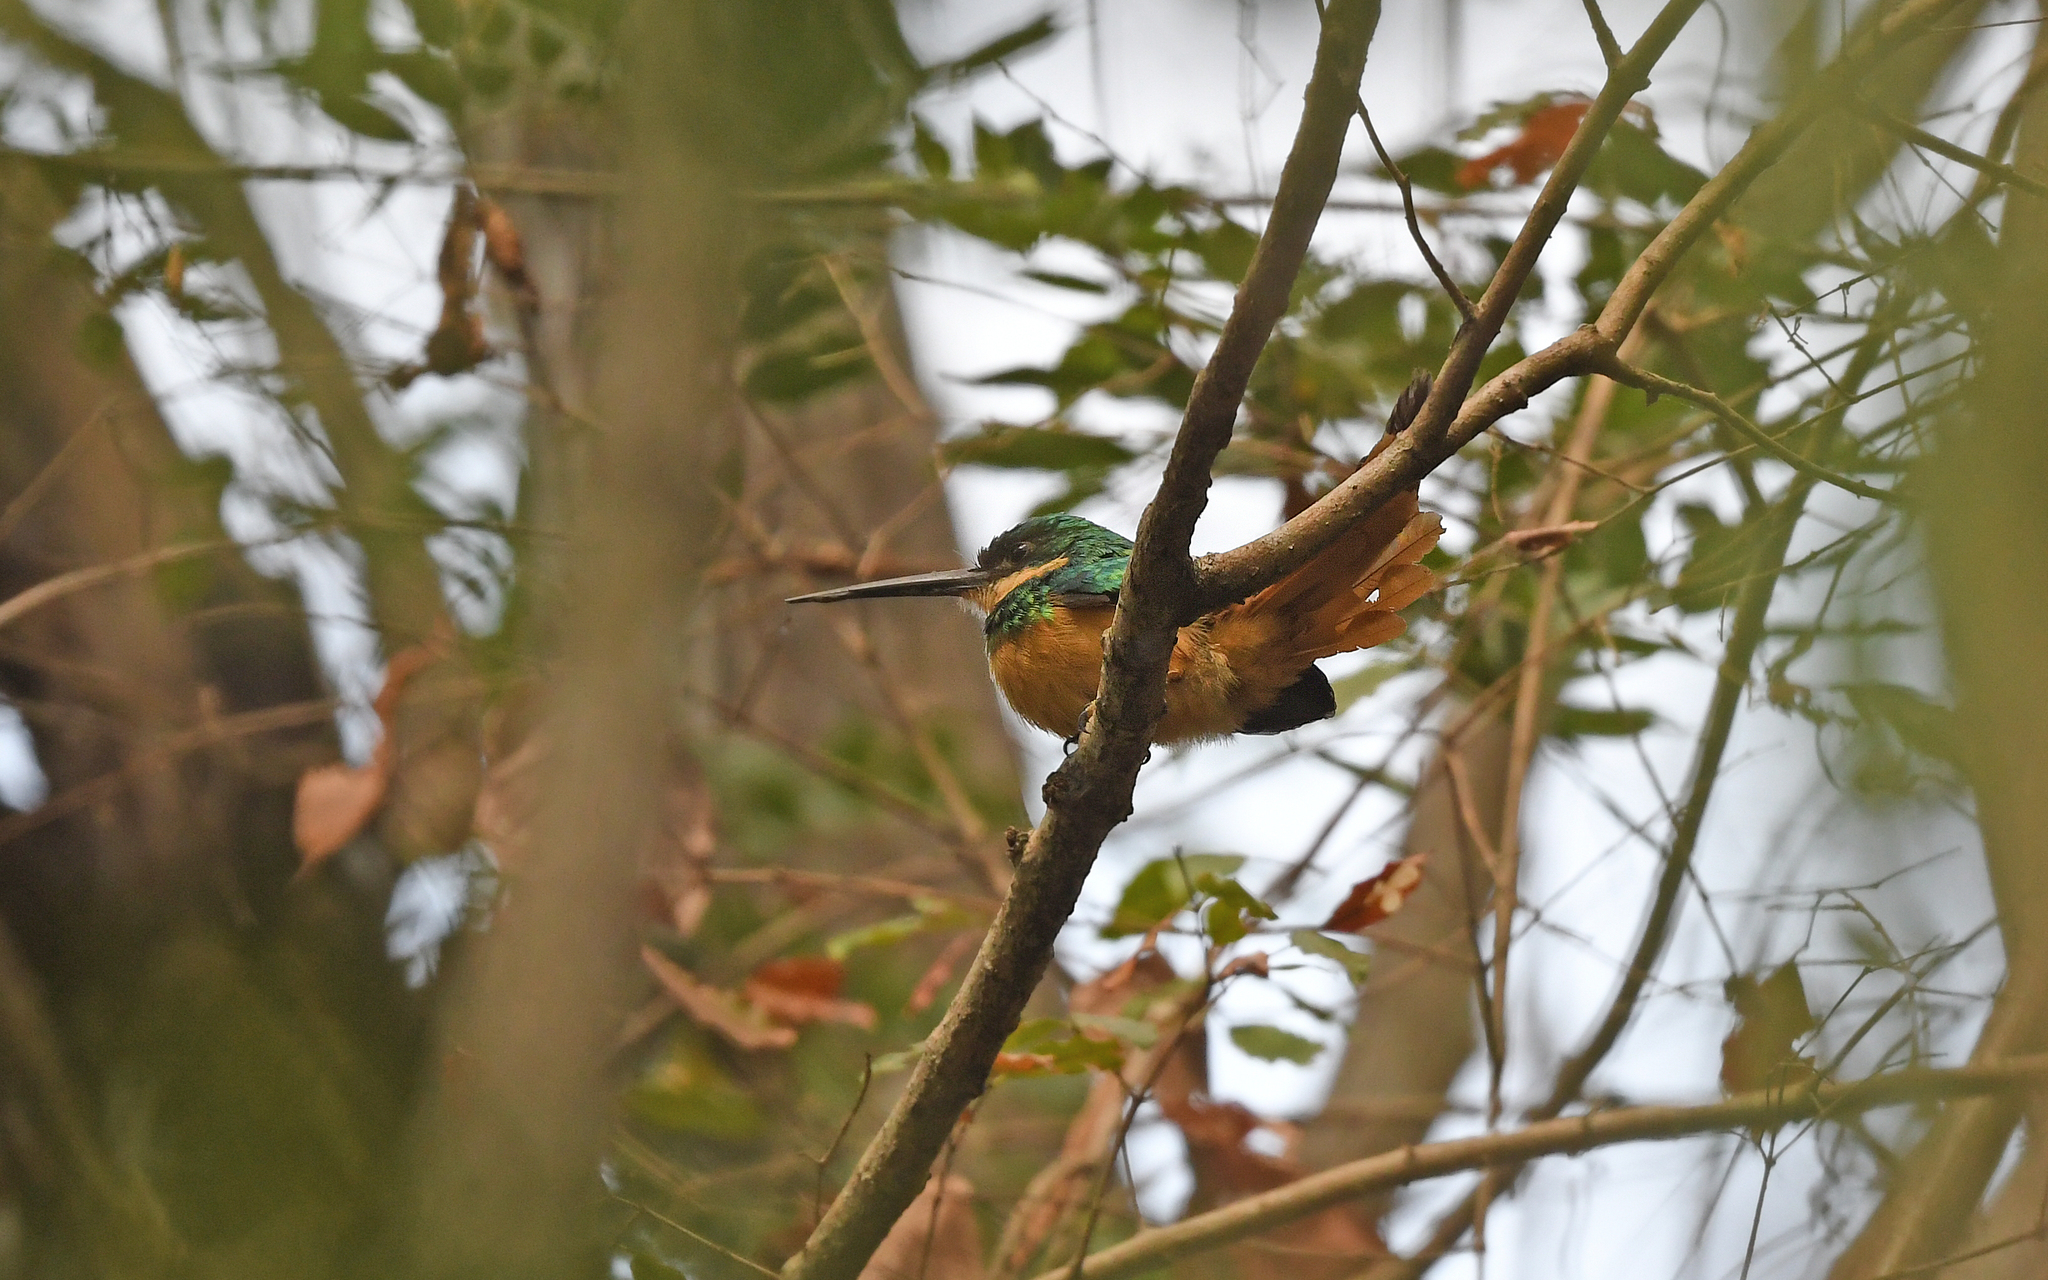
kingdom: Animalia
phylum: Chordata
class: Aves
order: Piciformes
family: Galbulidae
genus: Galbula
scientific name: Galbula ruficauda
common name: Rufous-tailed jacamar
